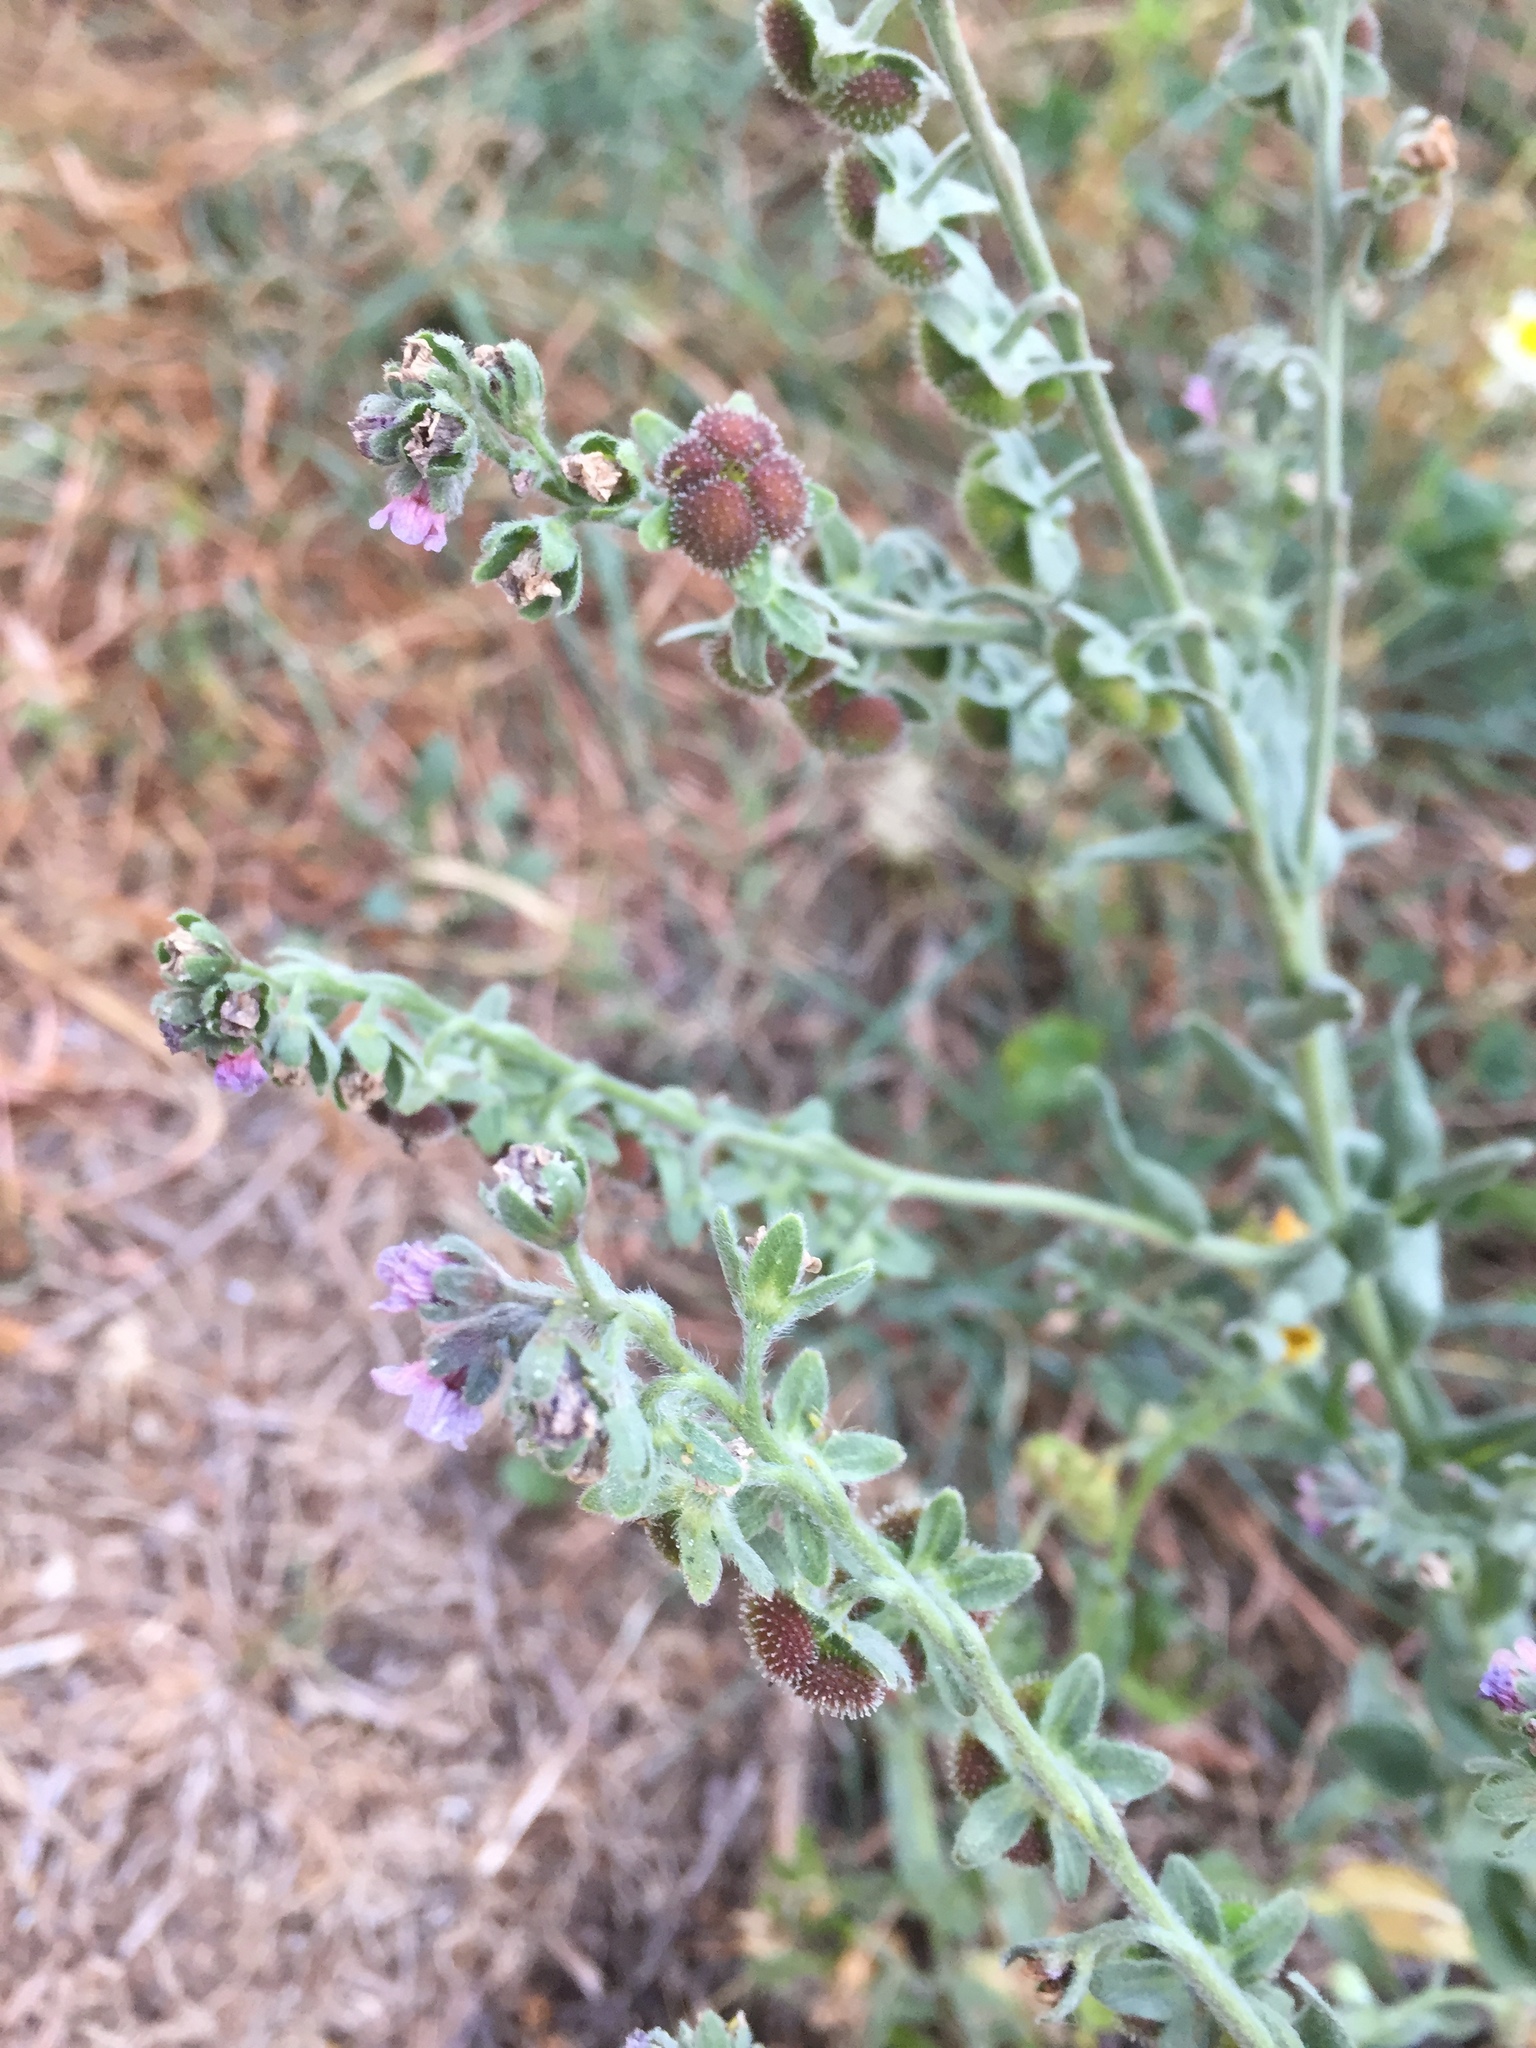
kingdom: Plantae
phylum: Tracheophyta
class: Magnoliopsida
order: Boraginales
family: Boraginaceae
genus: Cynoglossum
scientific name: Cynoglossum creticum
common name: Blue hound's tongue
